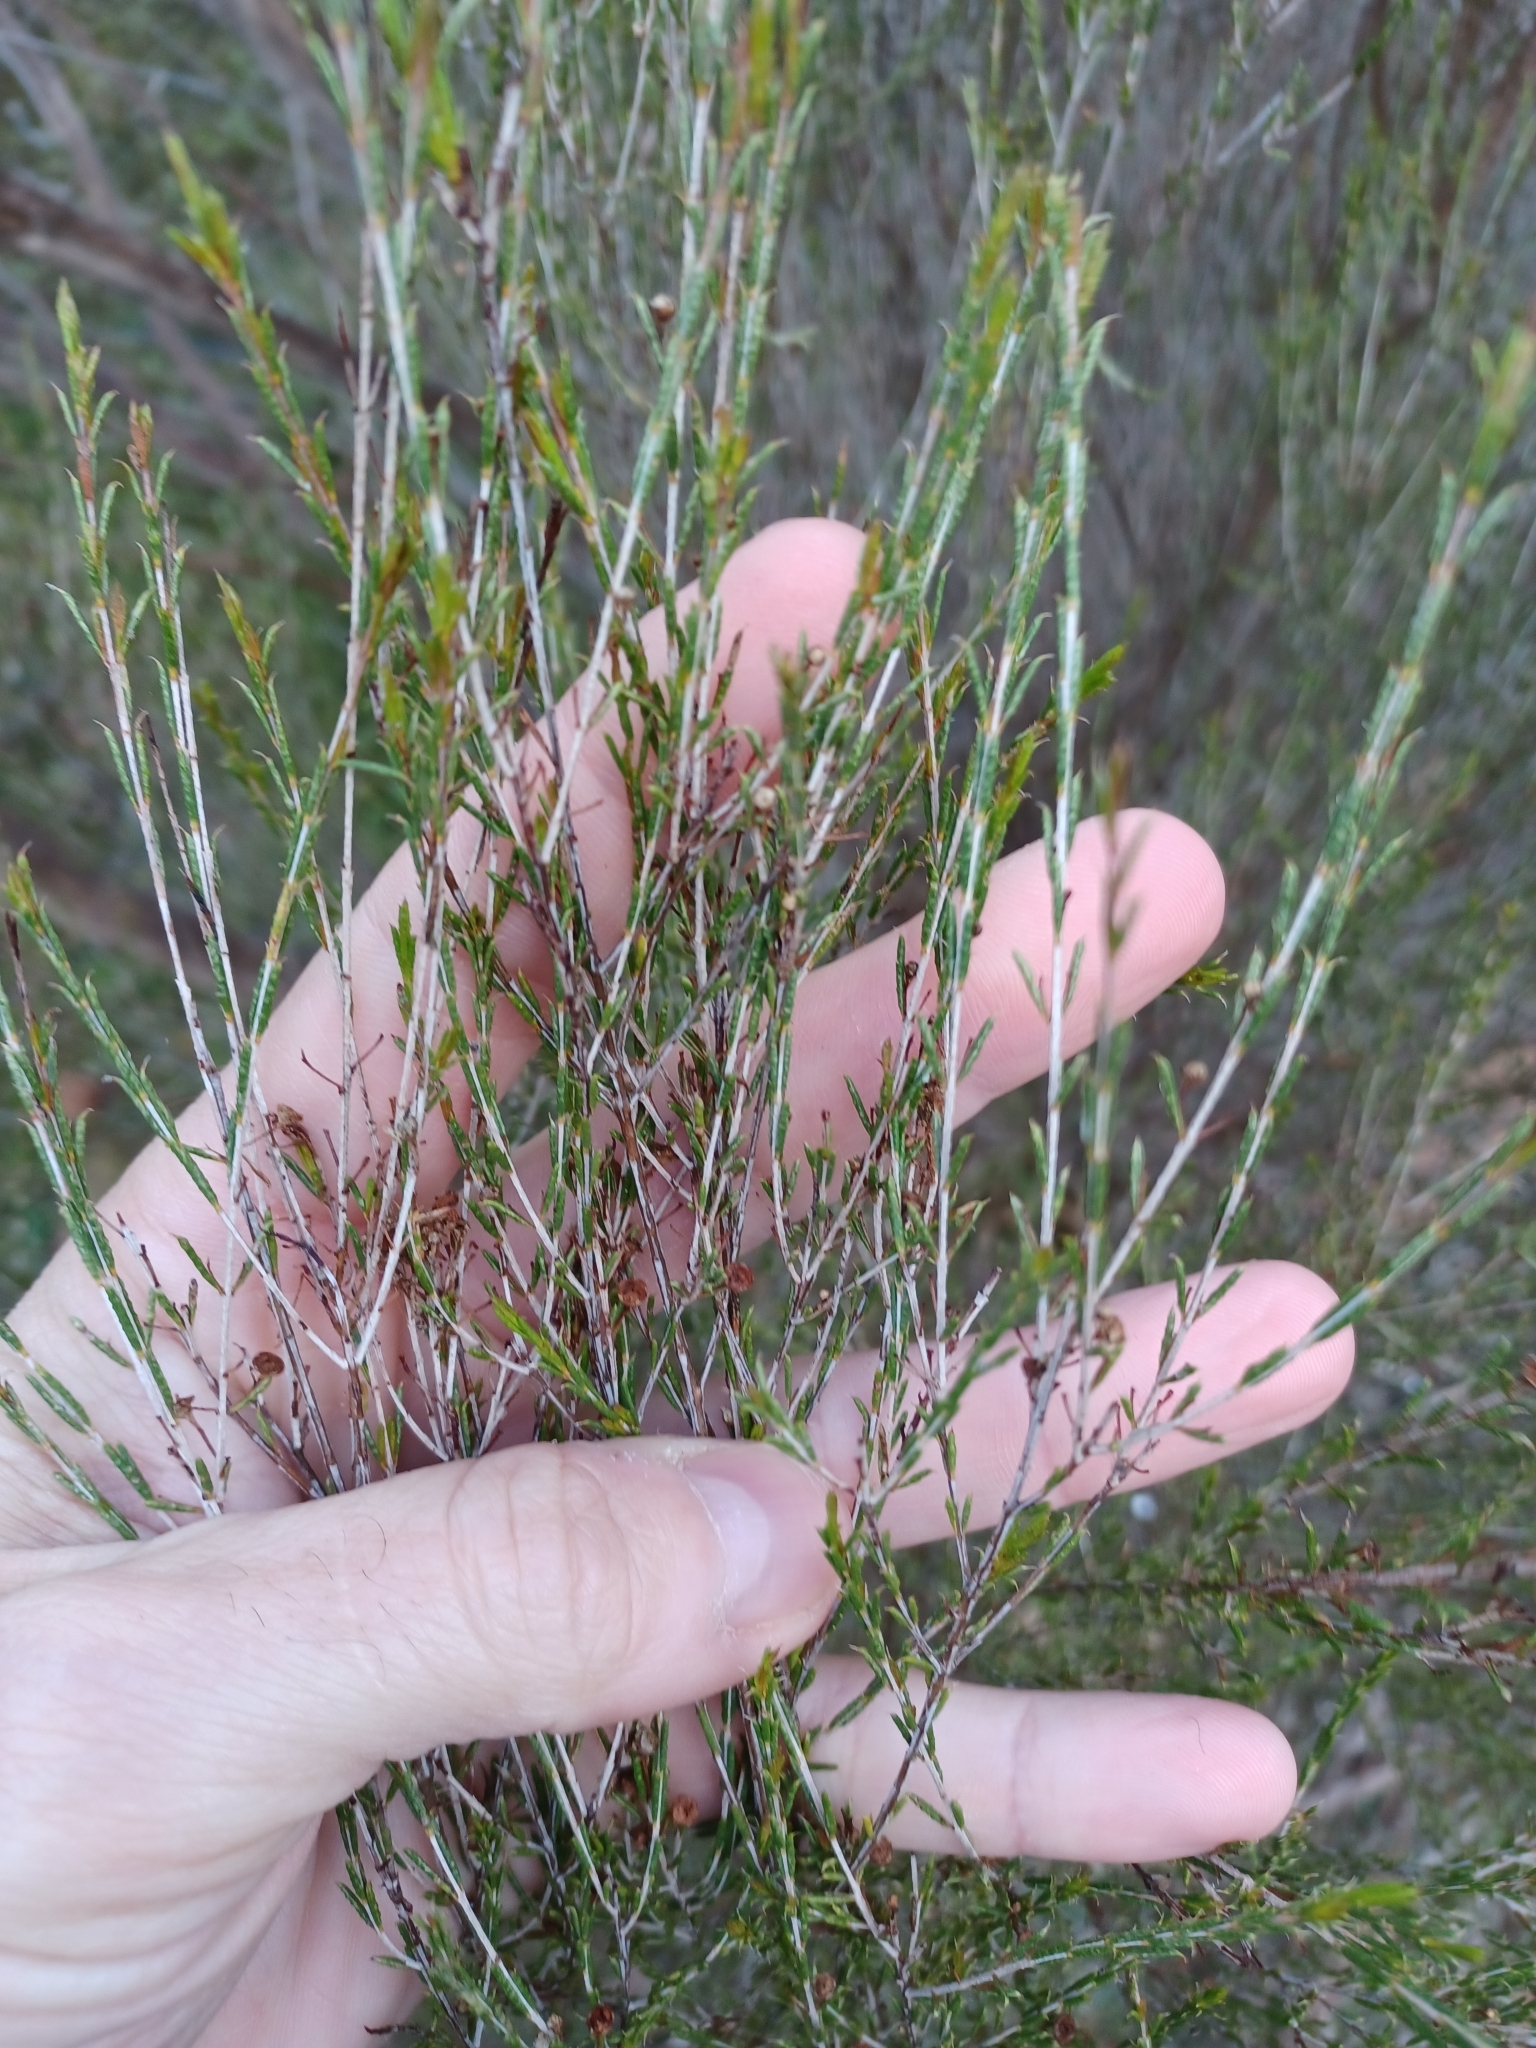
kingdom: Plantae
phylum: Tracheophyta
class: Magnoliopsida
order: Myrtales
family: Myrtaceae
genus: Hysterobaeckea
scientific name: Hysterobaeckea behrii
